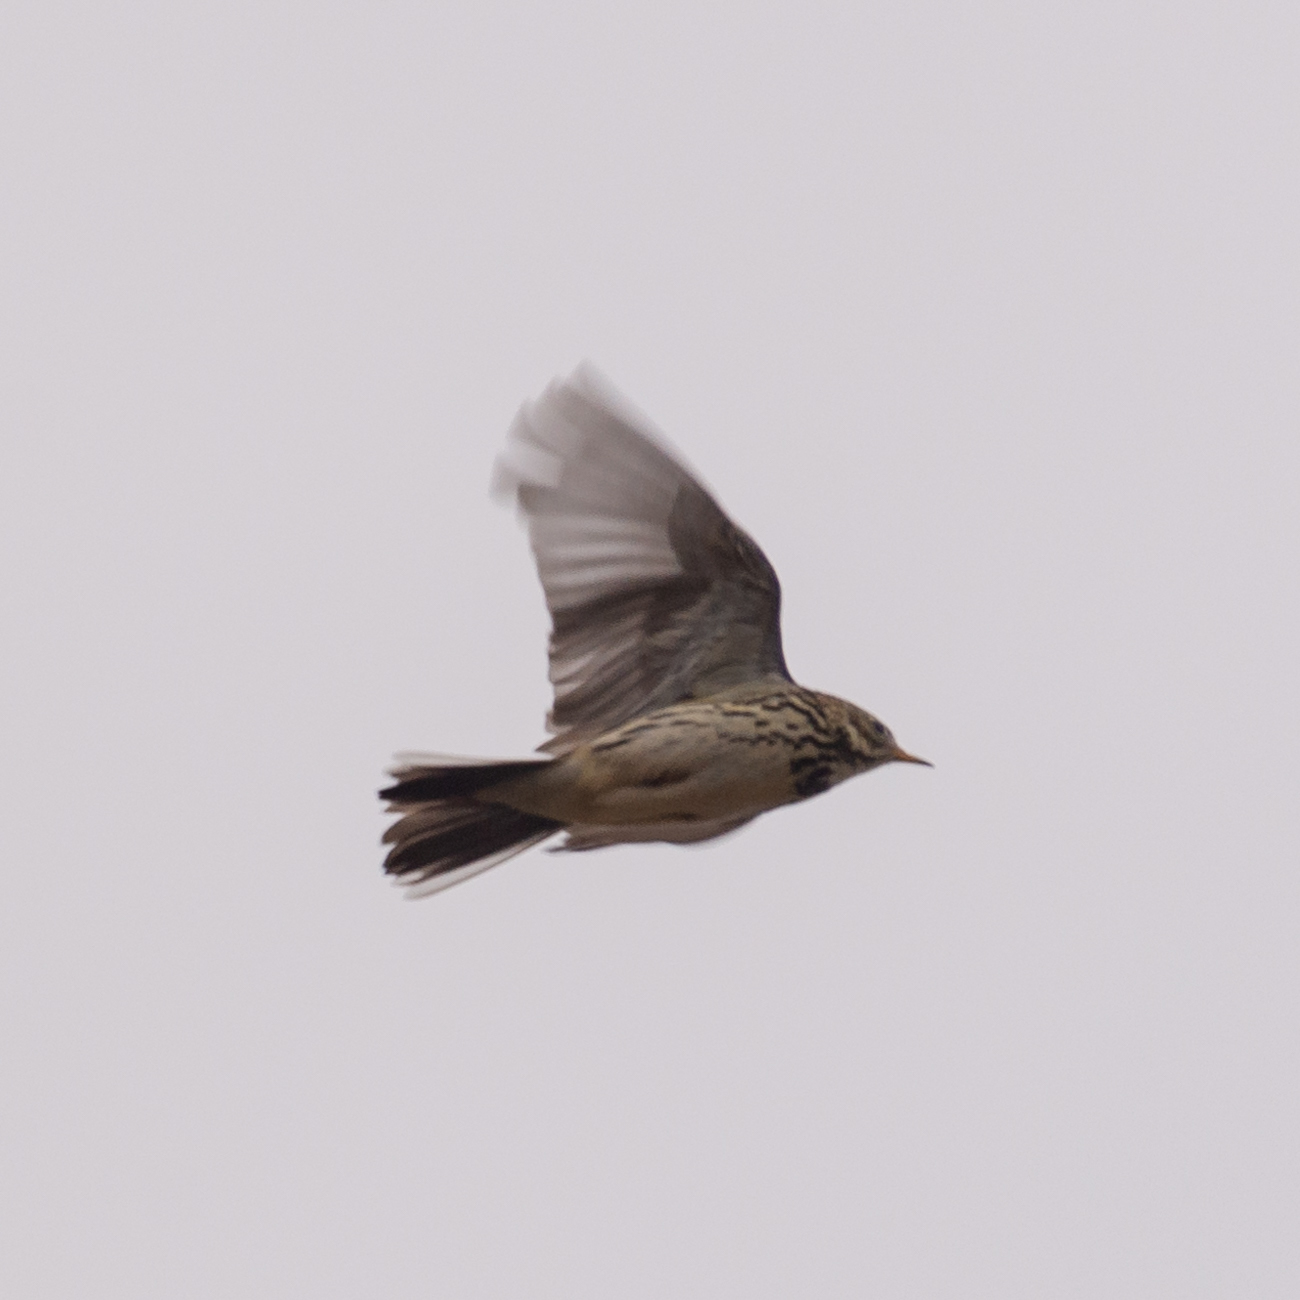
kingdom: Animalia
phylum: Chordata
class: Aves
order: Passeriformes
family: Motacillidae
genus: Anthus
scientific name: Anthus pratensis
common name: Meadow pipit
